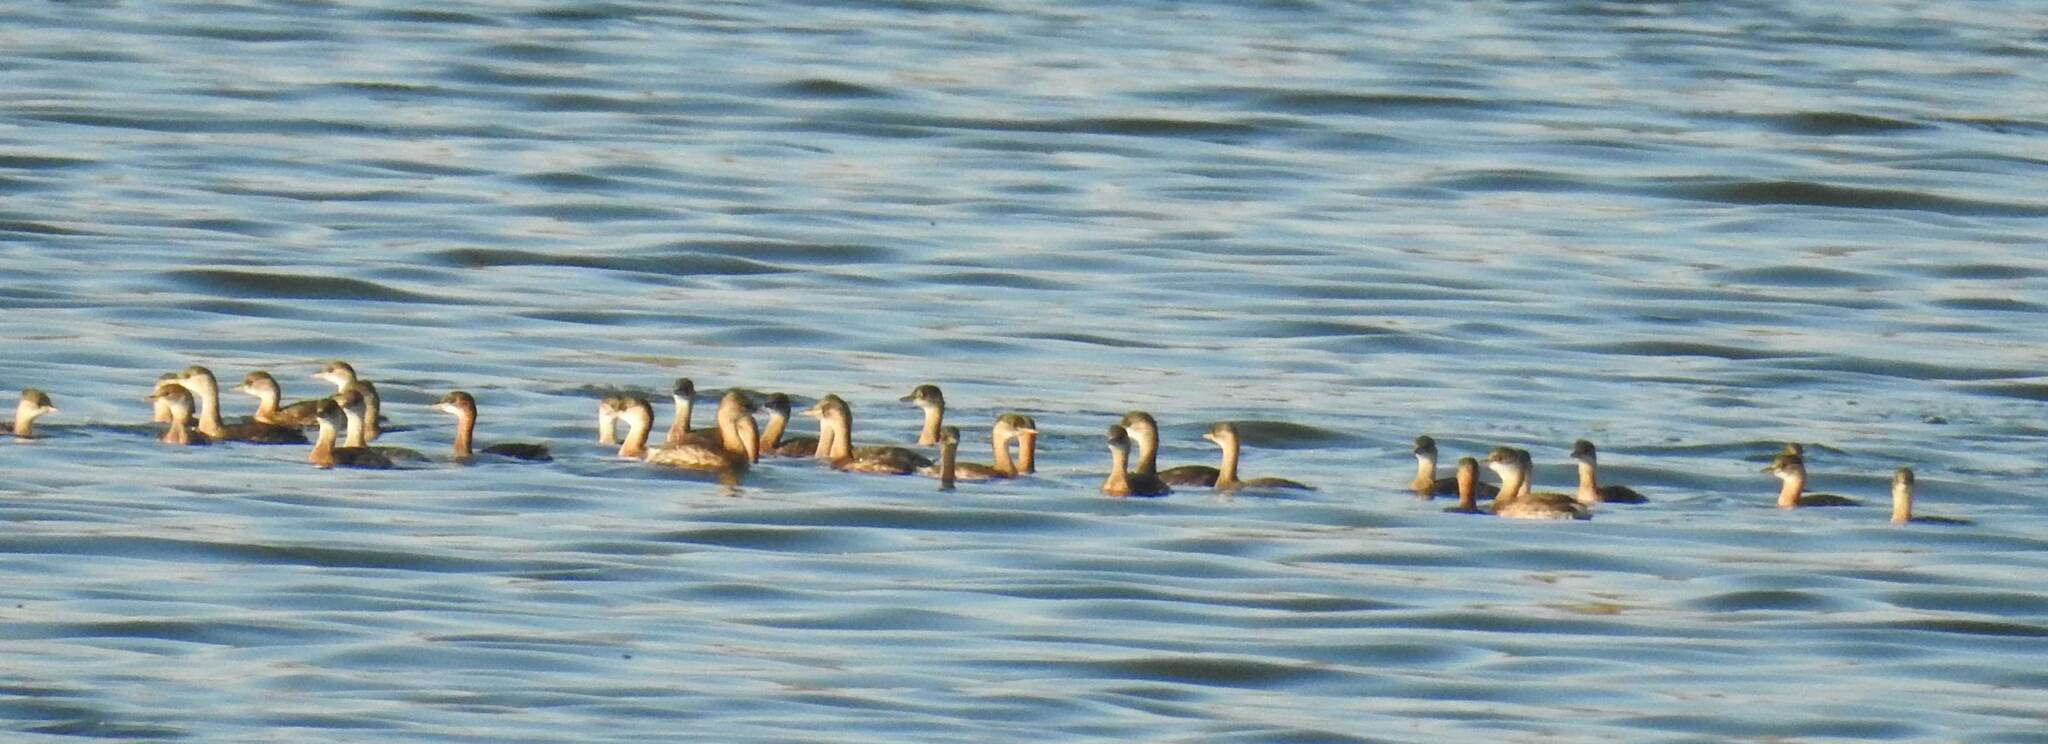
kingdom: Animalia
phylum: Chordata
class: Aves
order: Podicipediformes
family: Podicipedidae
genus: Podiceps
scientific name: Podiceps nigricollis
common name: Black-necked grebe
